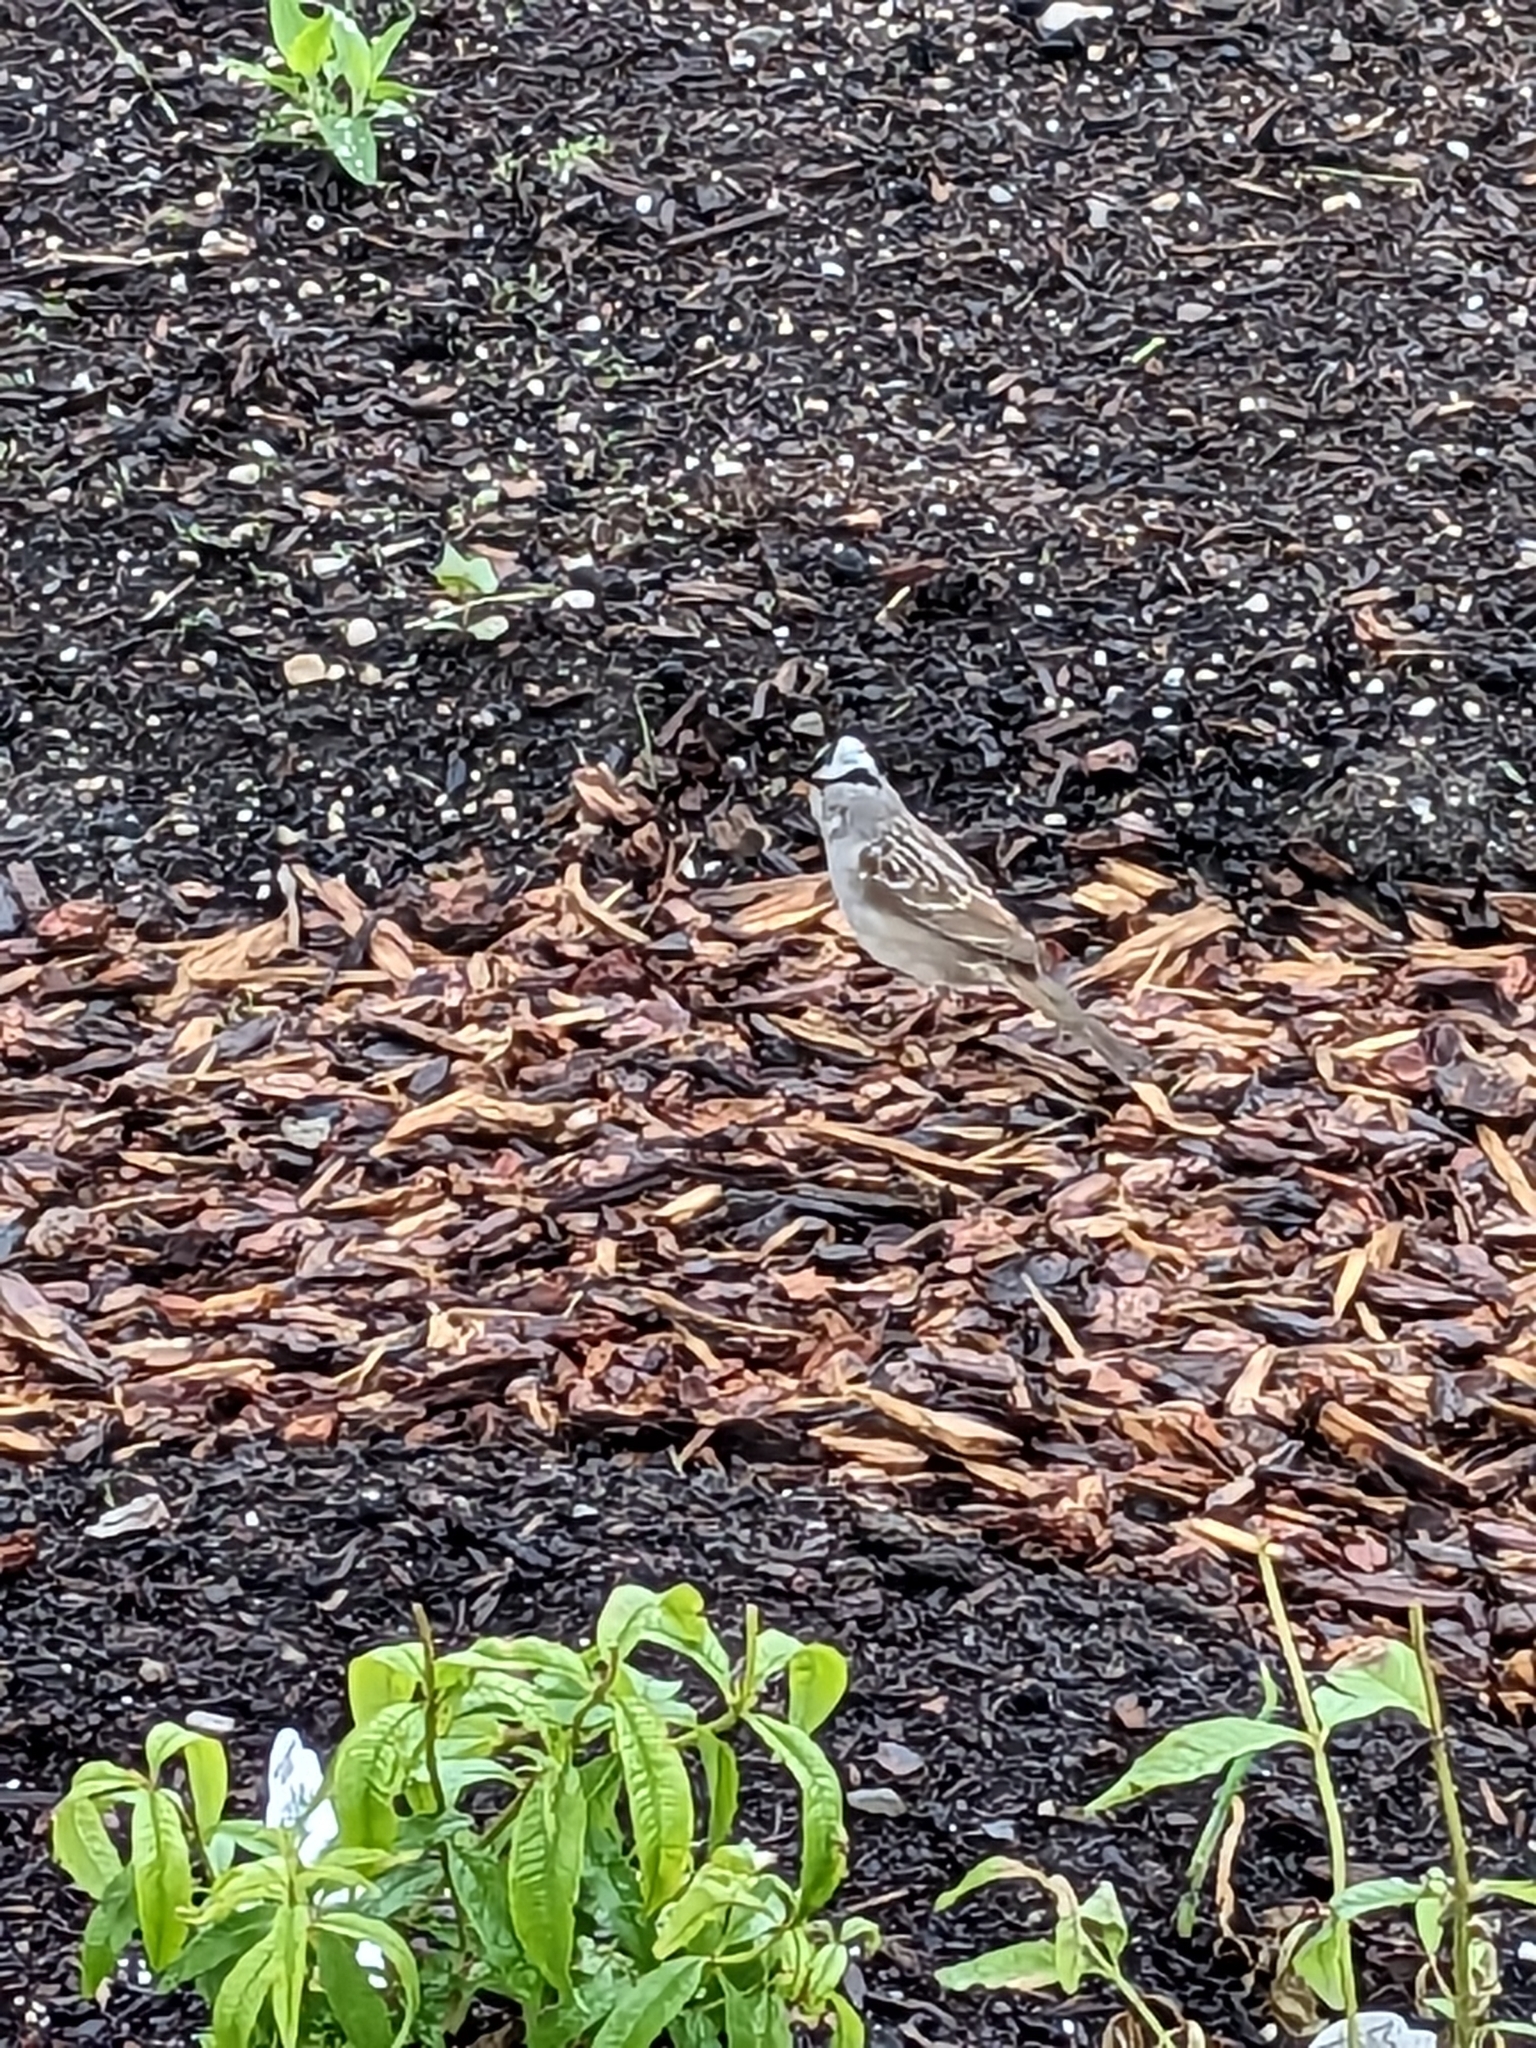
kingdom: Animalia
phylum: Chordata
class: Aves
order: Passeriformes
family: Passerellidae
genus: Zonotrichia
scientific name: Zonotrichia leucophrys
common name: White-crowned sparrow
